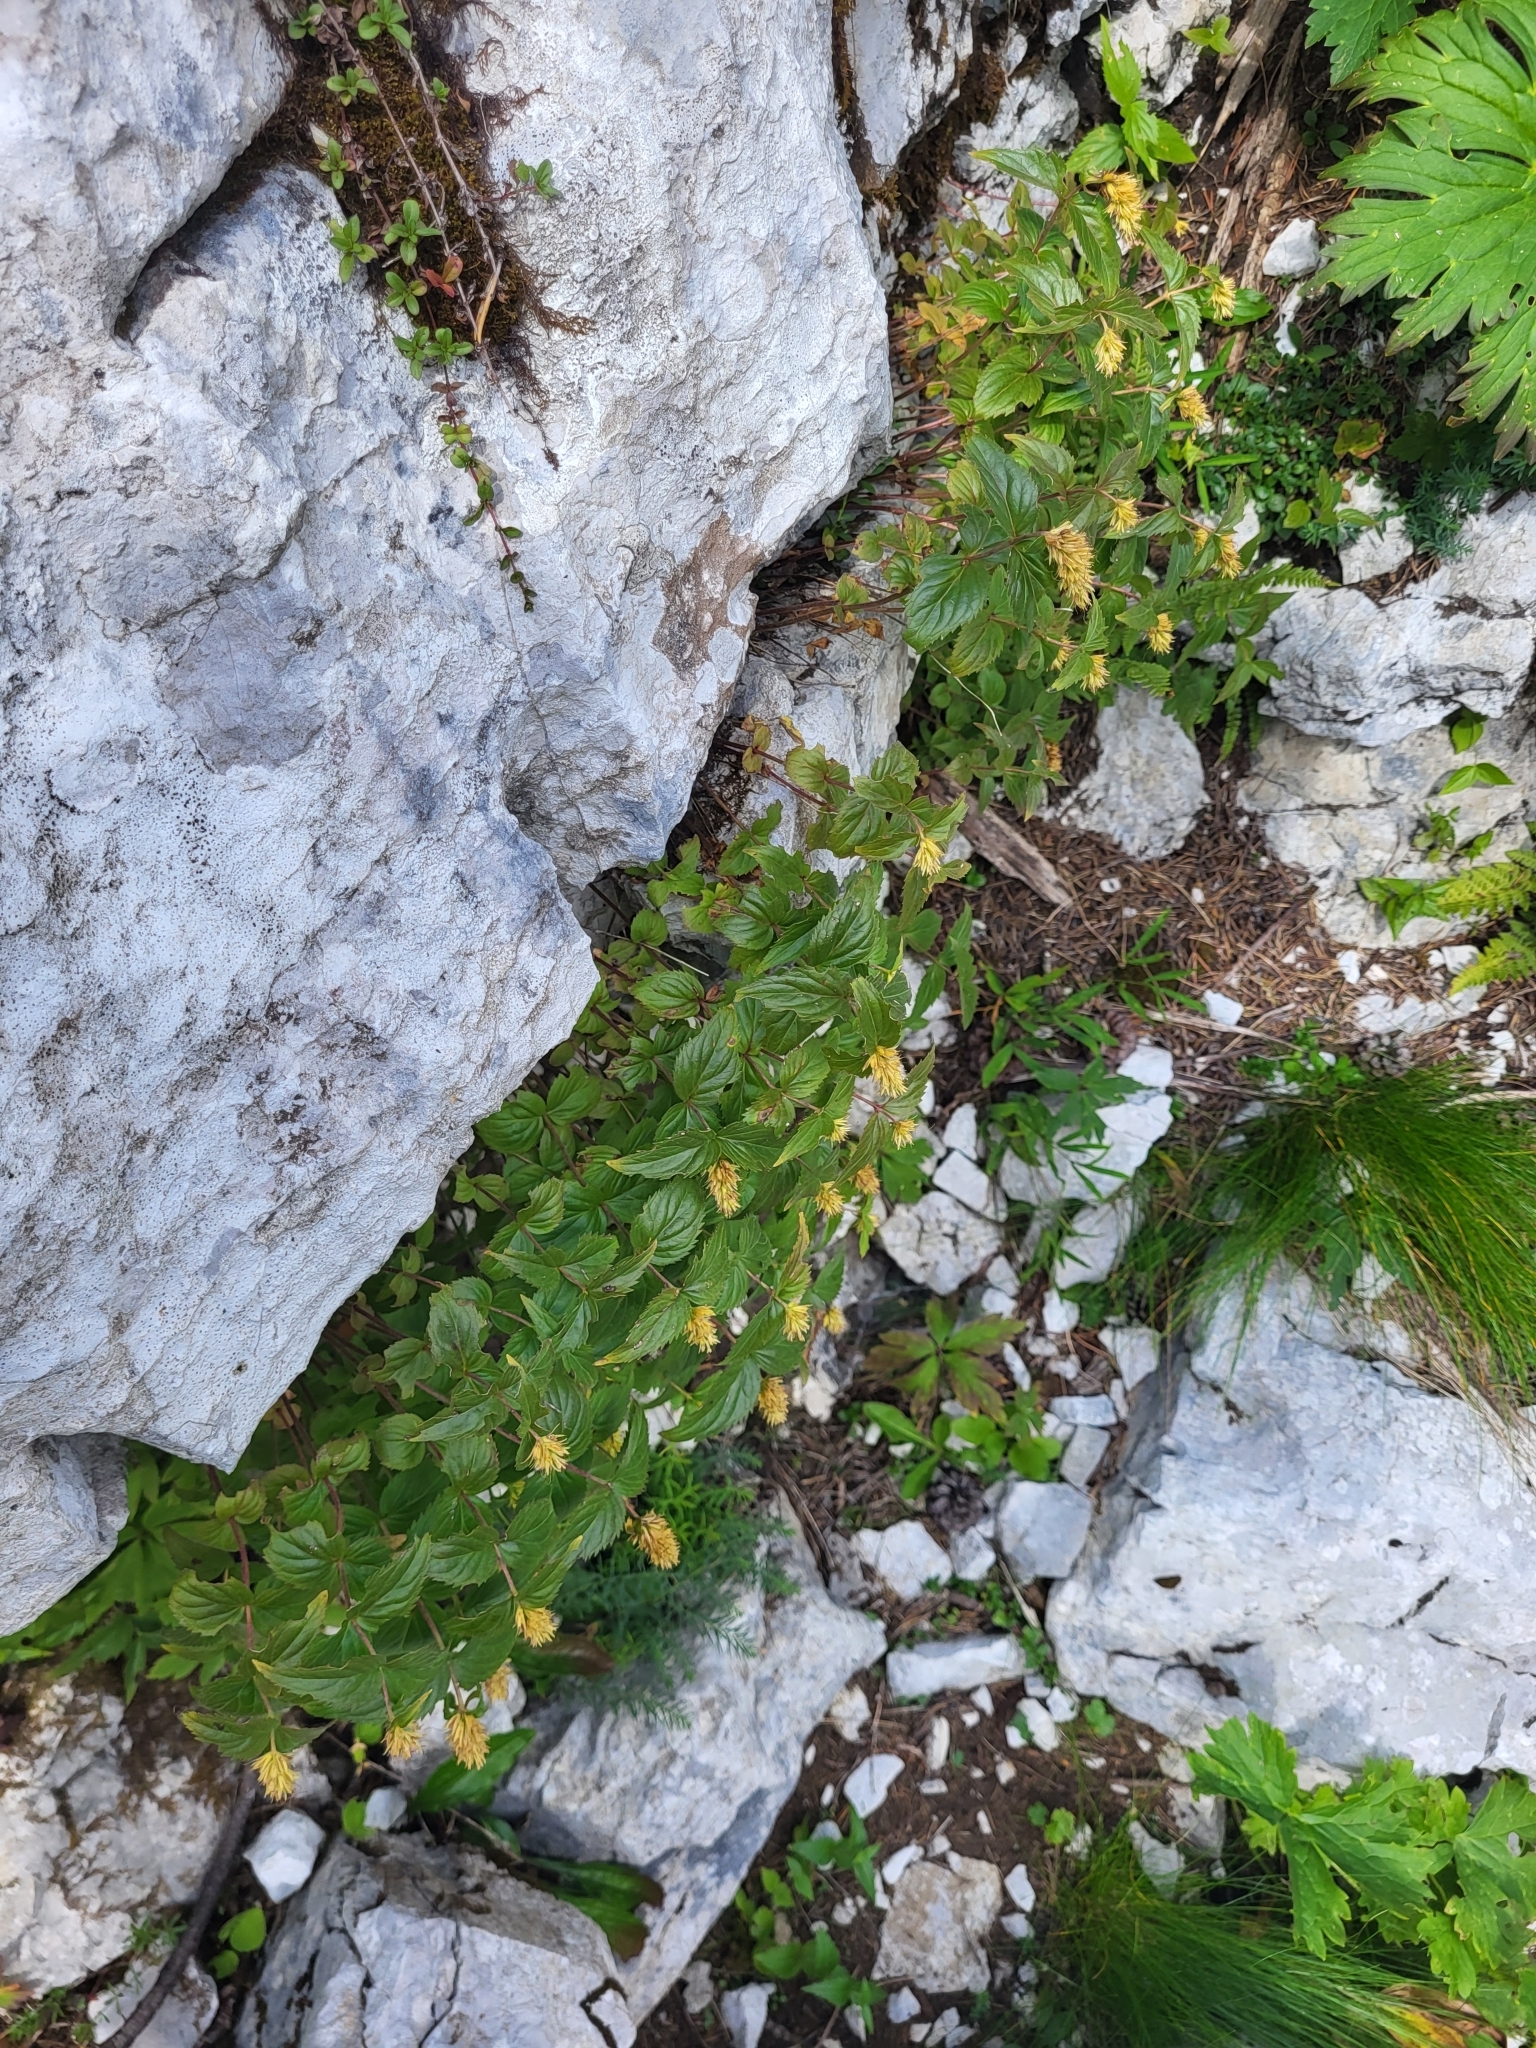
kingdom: Plantae
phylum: Tracheophyta
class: Magnoliopsida
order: Lamiales
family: Plantaginaceae
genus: Paederota
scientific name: Paederota lutea
